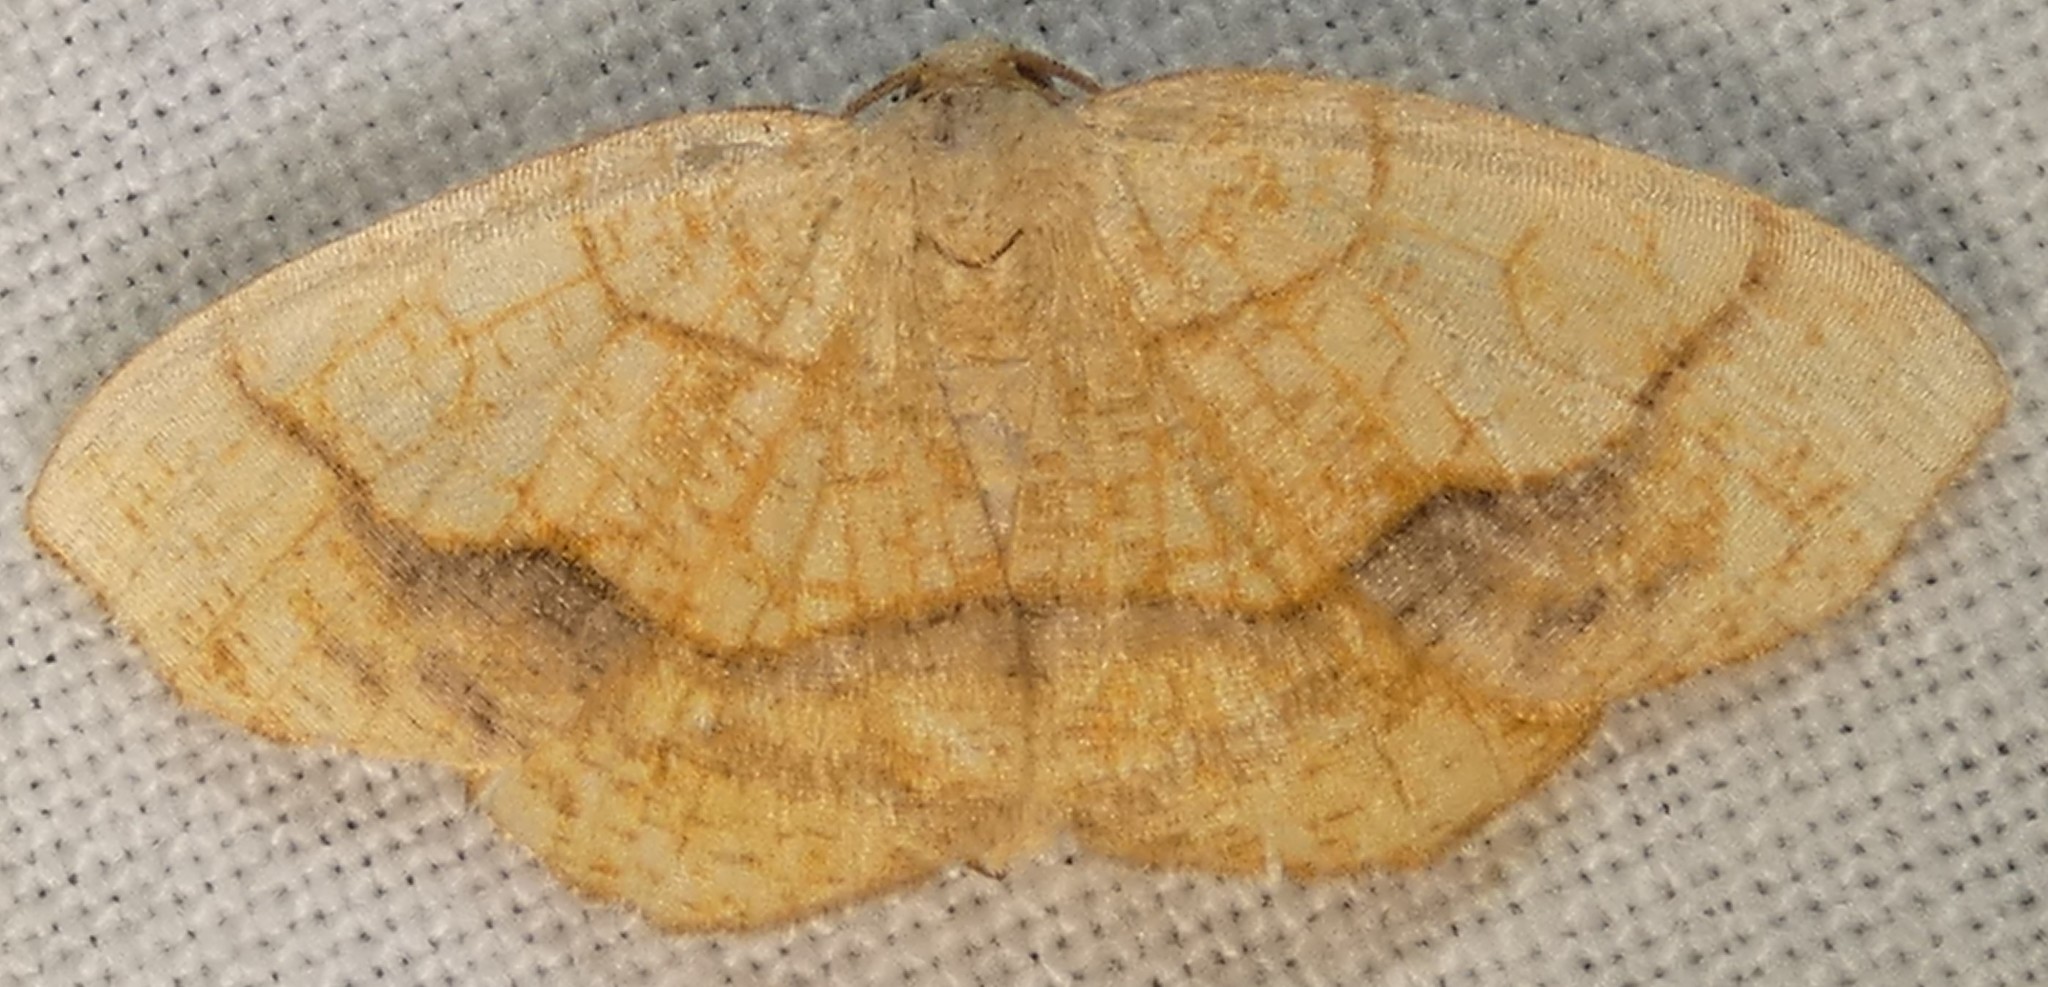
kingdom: Animalia
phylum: Arthropoda
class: Insecta
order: Lepidoptera
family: Geometridae
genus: Nematocampa
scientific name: Nematocampa resistaria
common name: Horned spanworm moth
